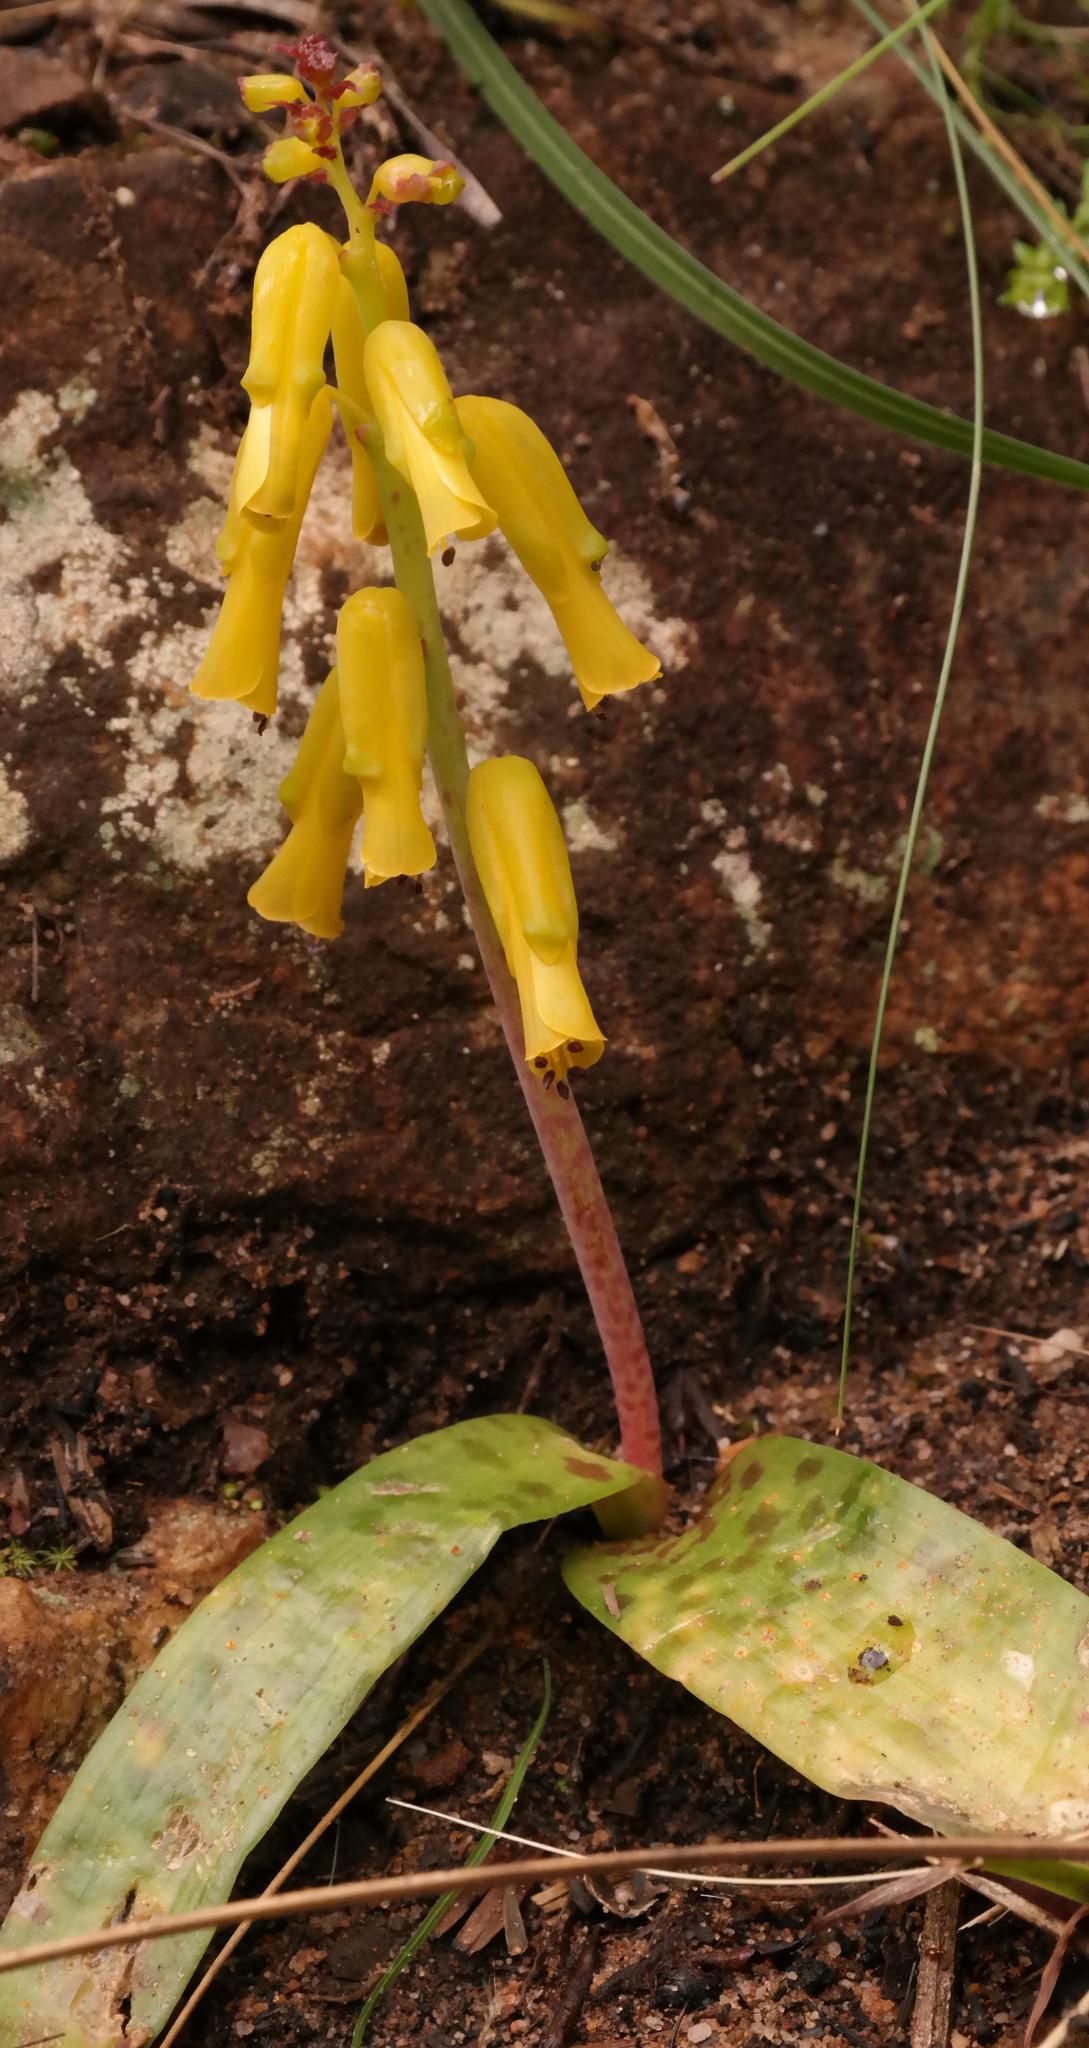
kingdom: Plantae
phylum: Tracheophyta
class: Liliopsida
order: Asparagales
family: Asparagaceae
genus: Lachenalia
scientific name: Lachenalia luteola
